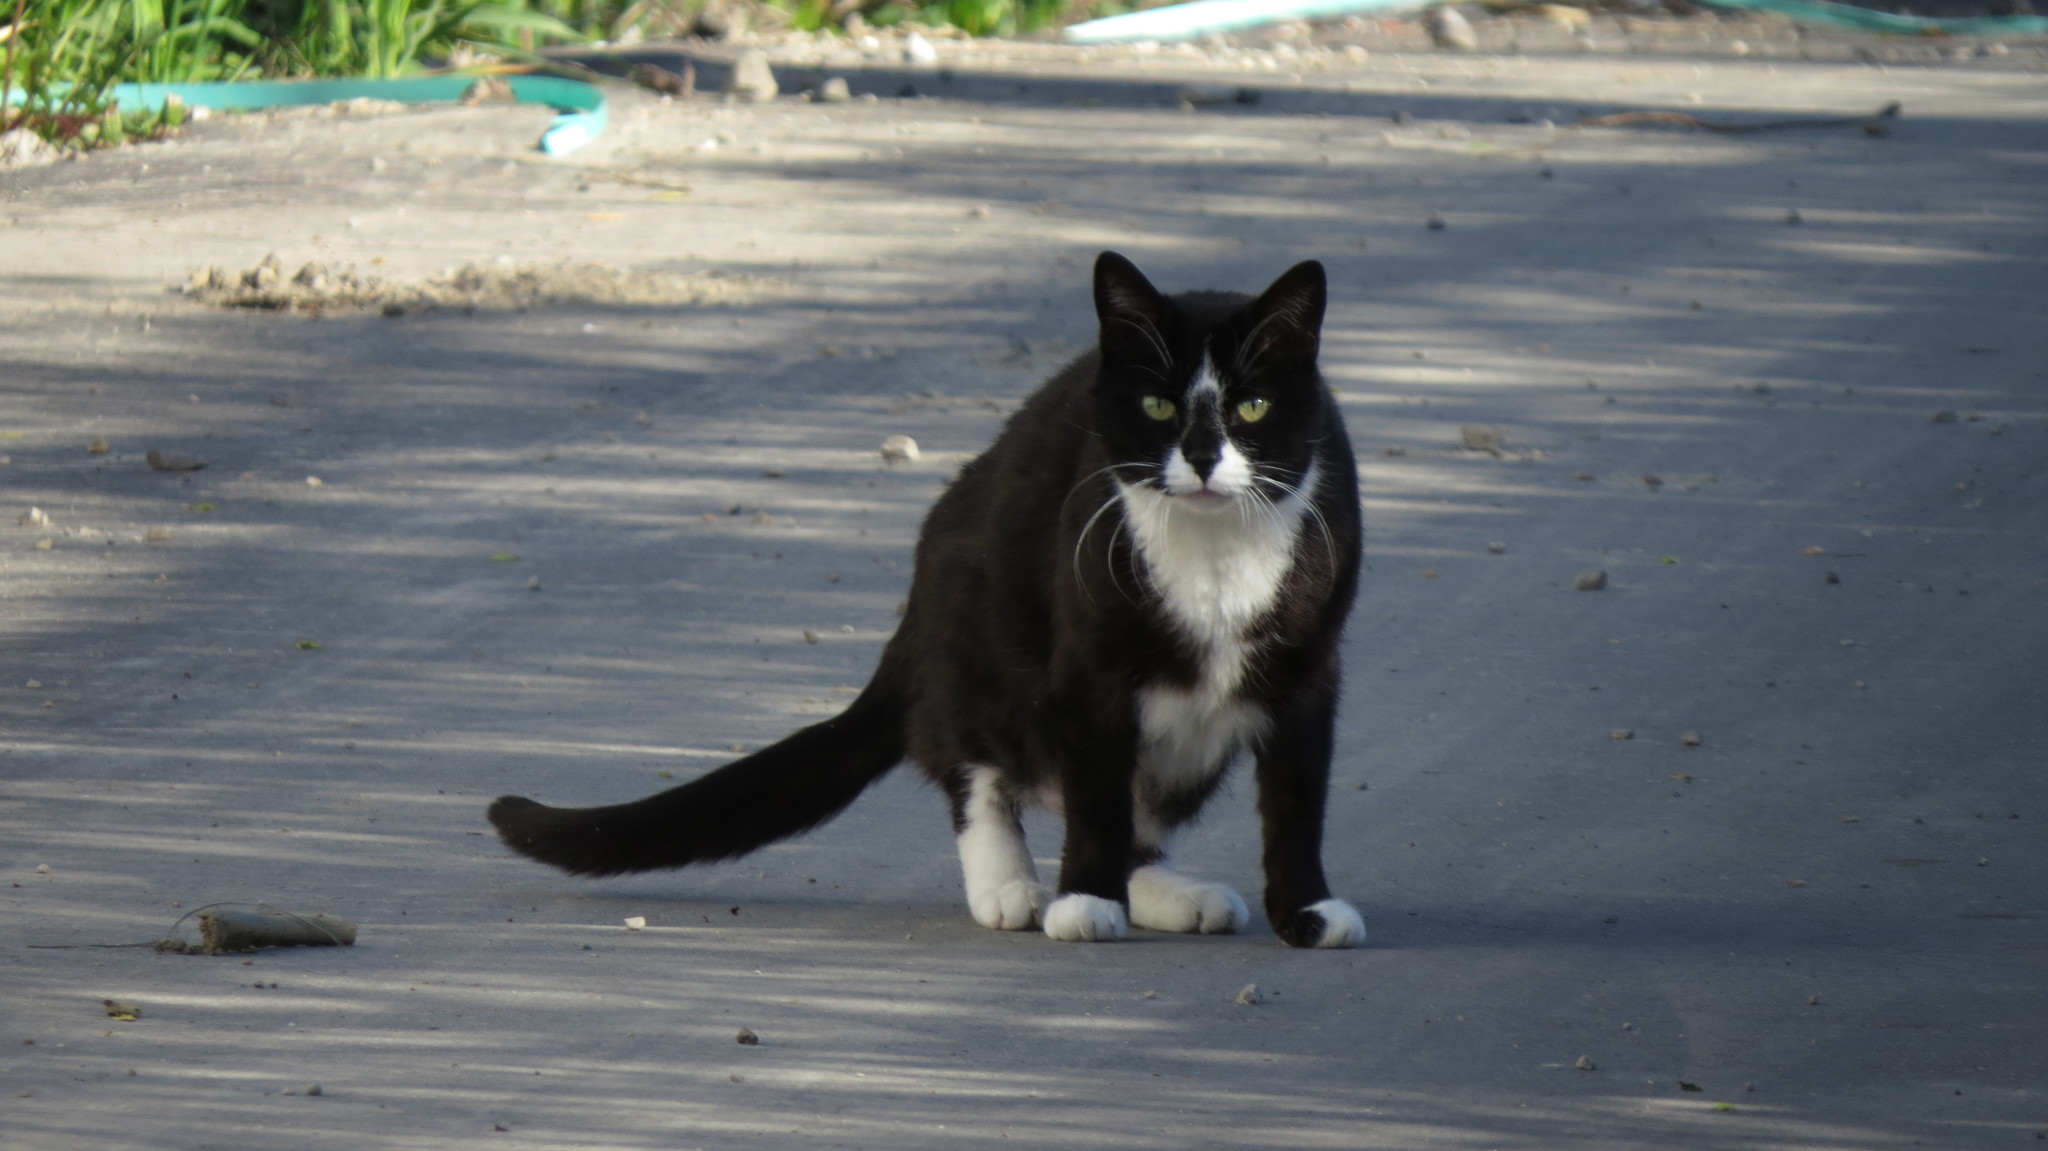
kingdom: Animalia
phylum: Chordata
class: Mammalia
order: Carnivora
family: Felidae
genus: Felis
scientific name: Felis catus
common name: Domestic cat
